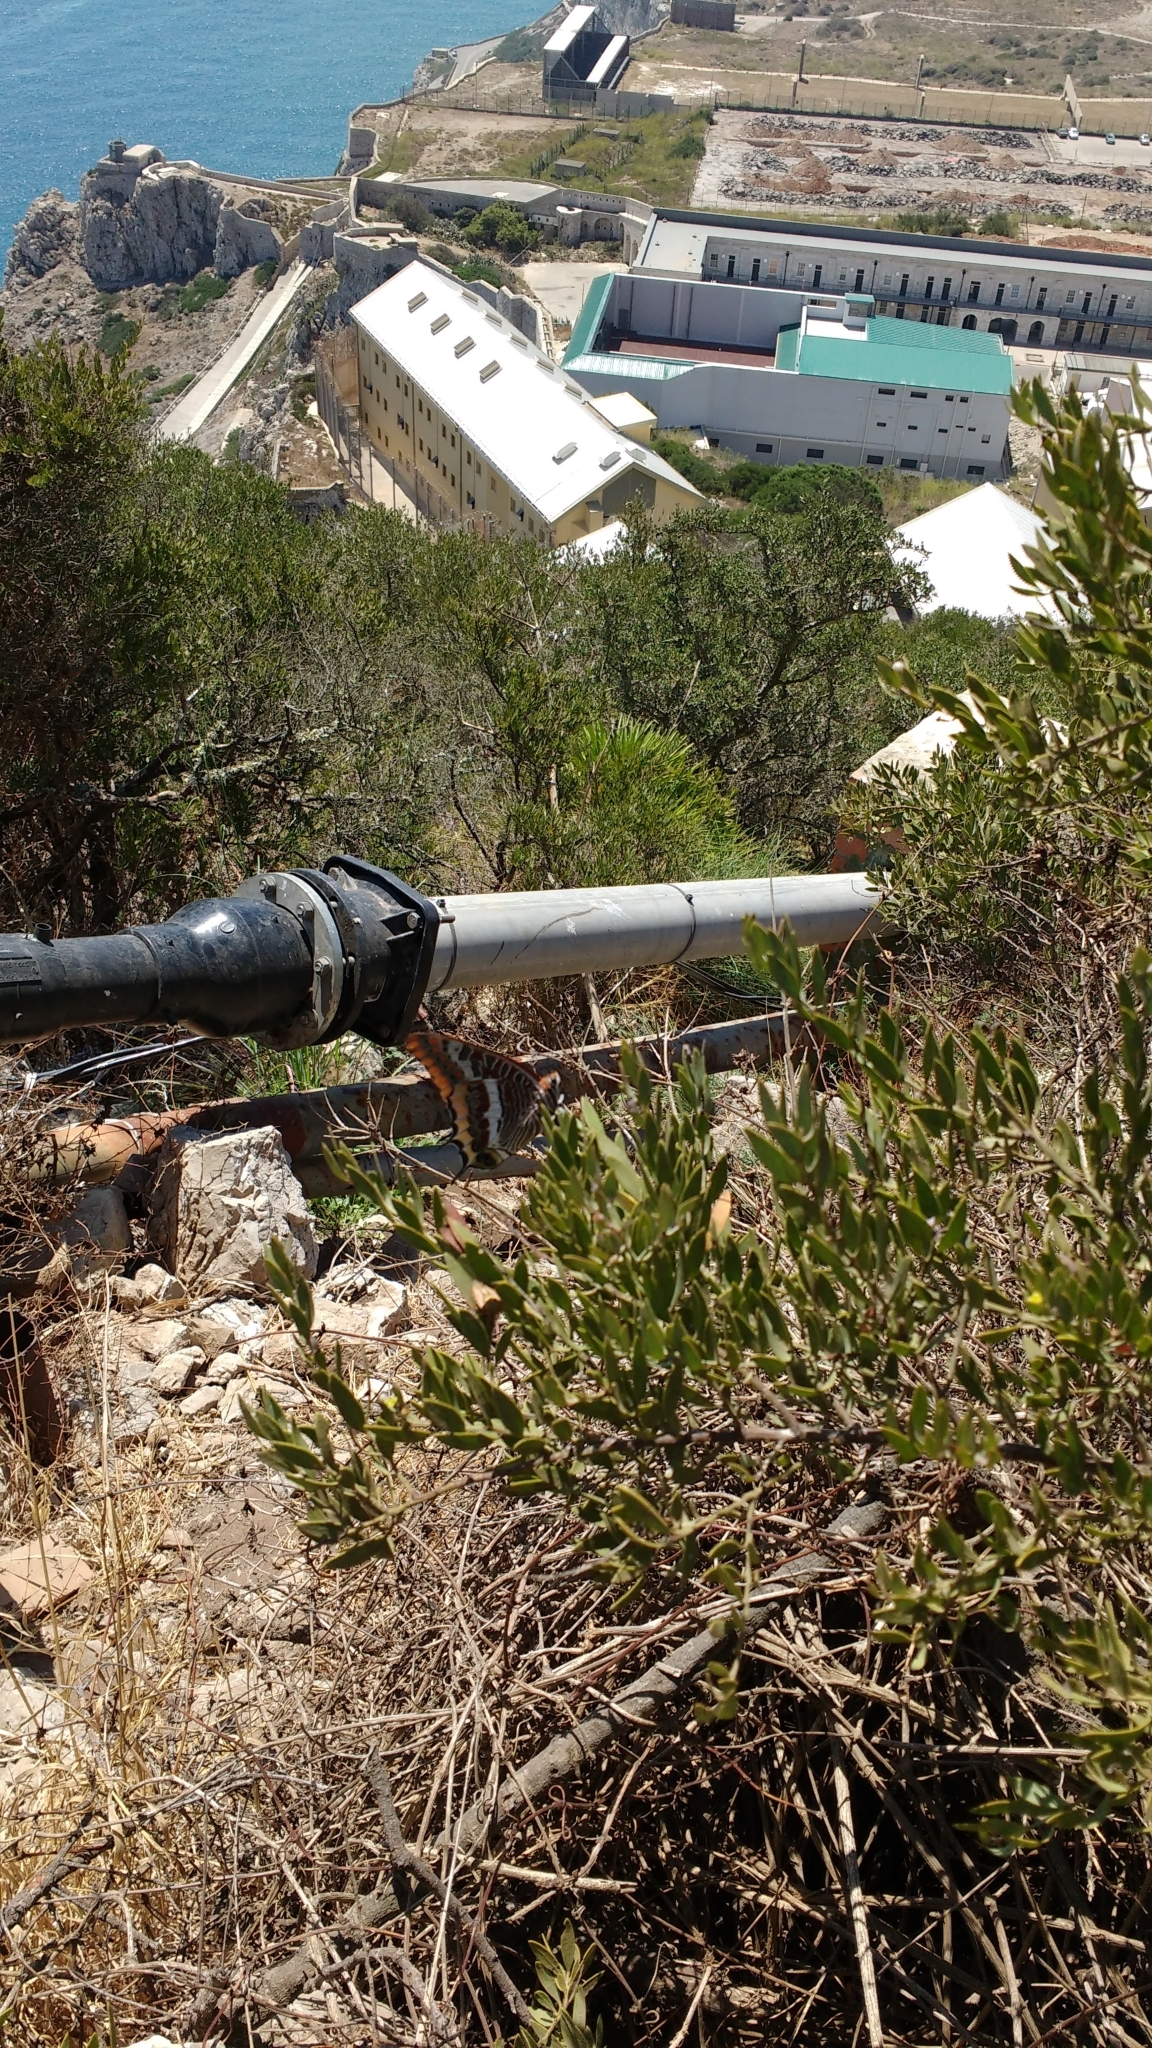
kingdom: Animalia
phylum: Arthropoda
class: Insecta
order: Lepidoptera
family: Nymphalidae
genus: Charaxes
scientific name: Charaxes jasius
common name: Two tailed pasha
